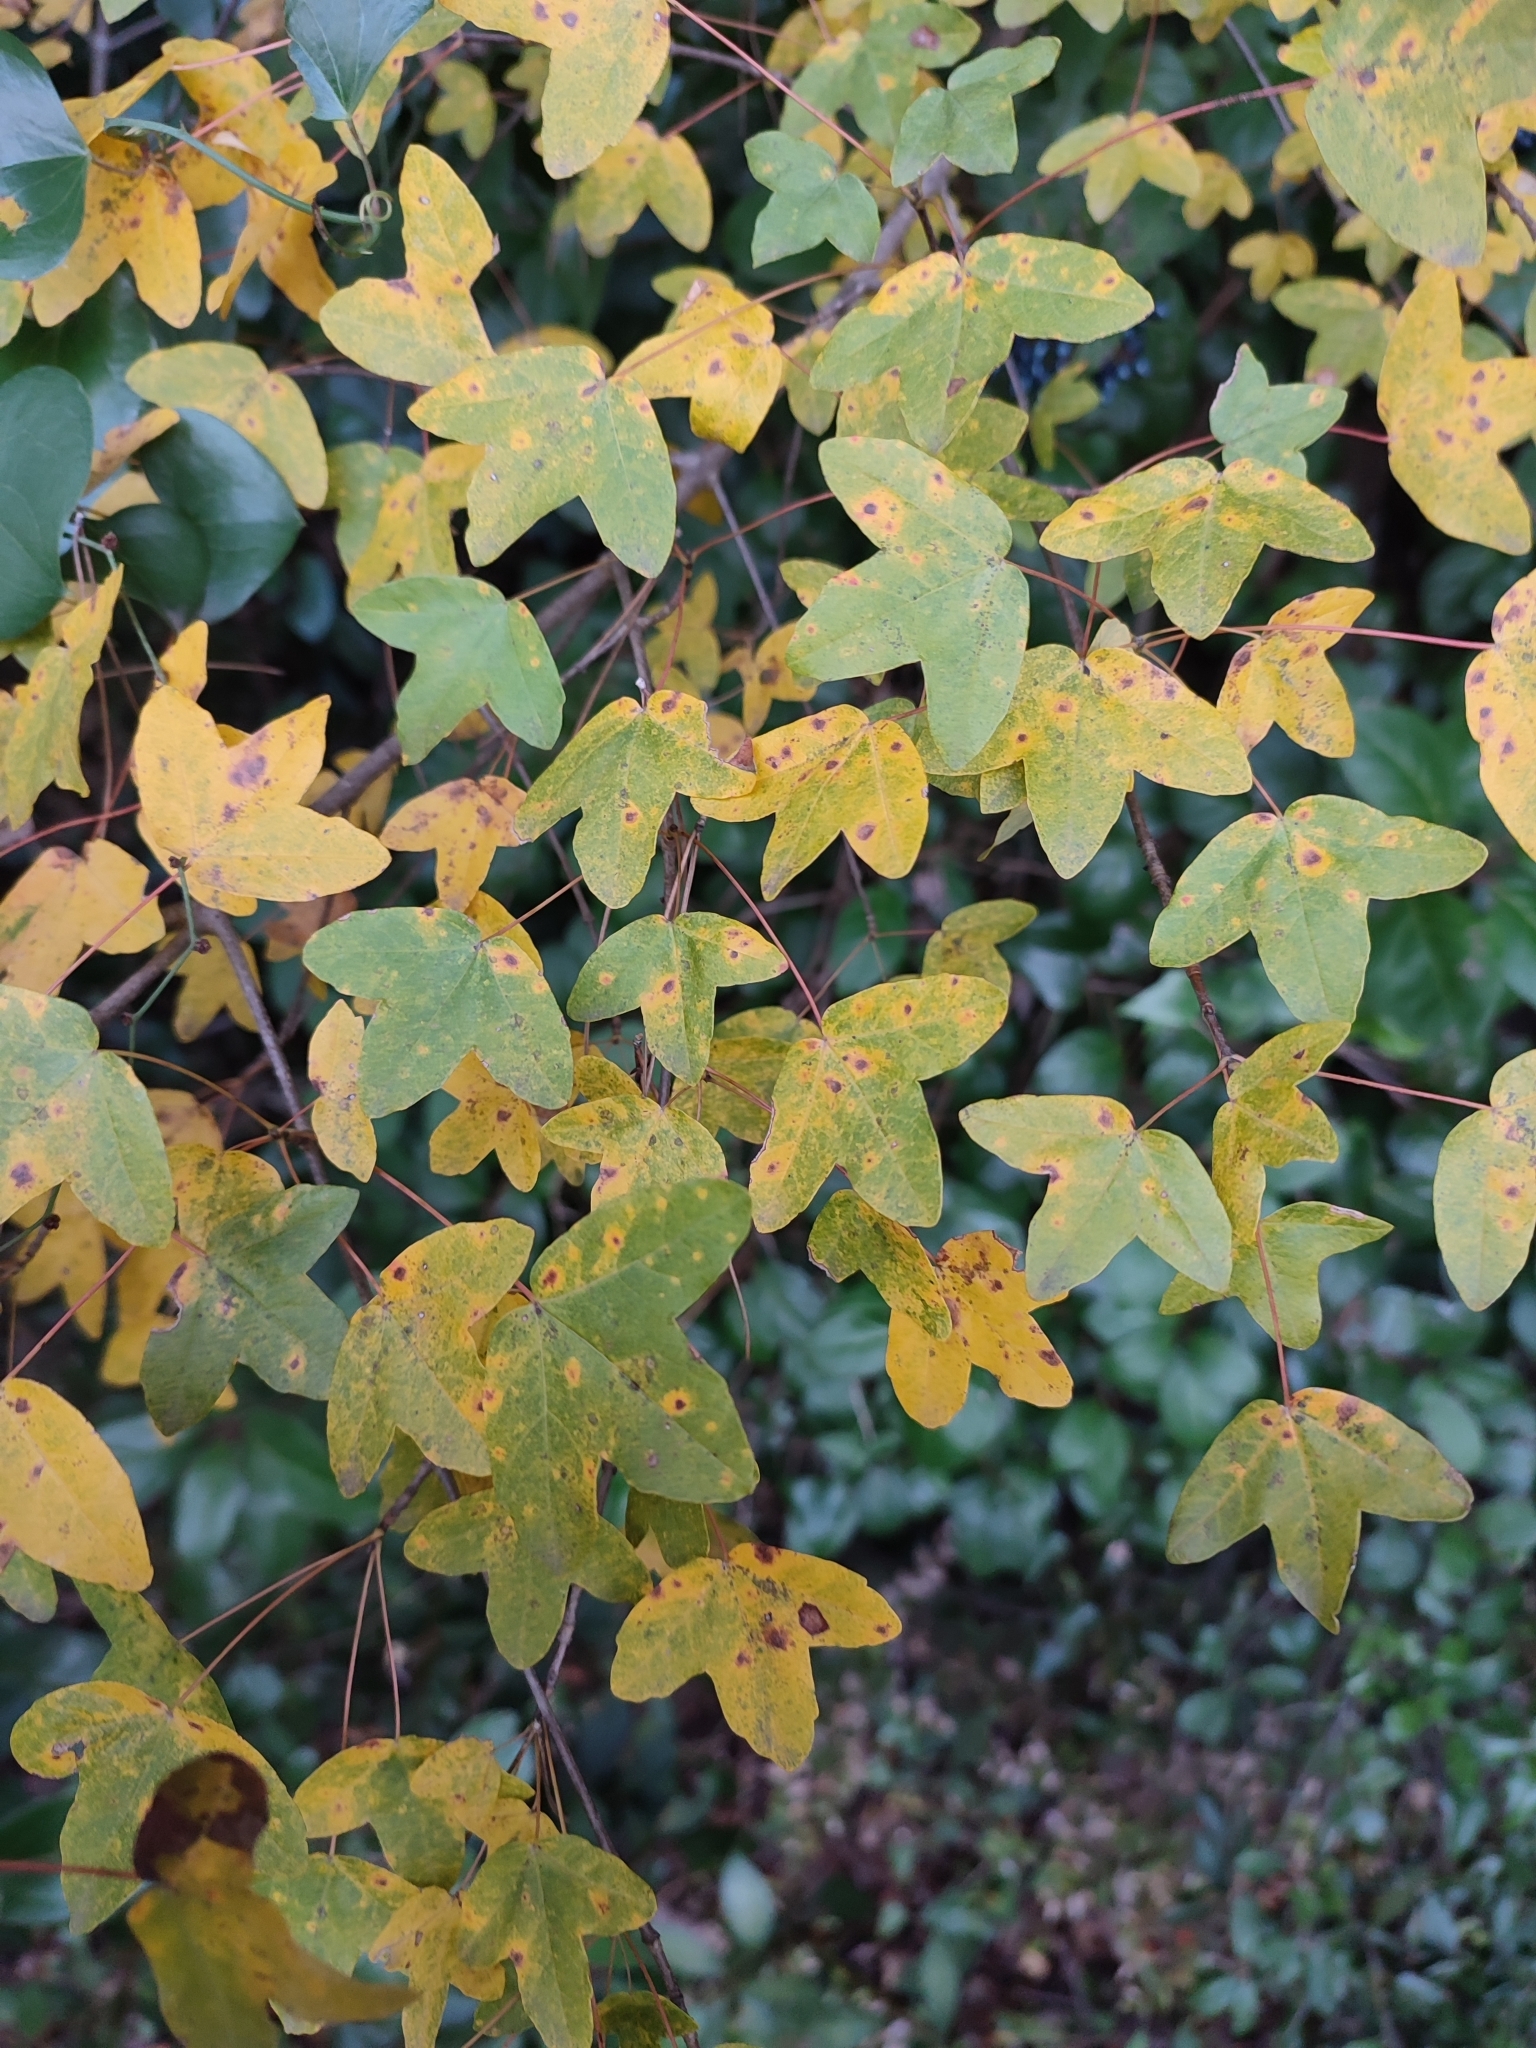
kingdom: Plantae
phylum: Tracheophyta
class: Magnoliopsida
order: Sapindales
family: Sapindaceae
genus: Acer
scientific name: Acer monspessulanum
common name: Montpellier maple
